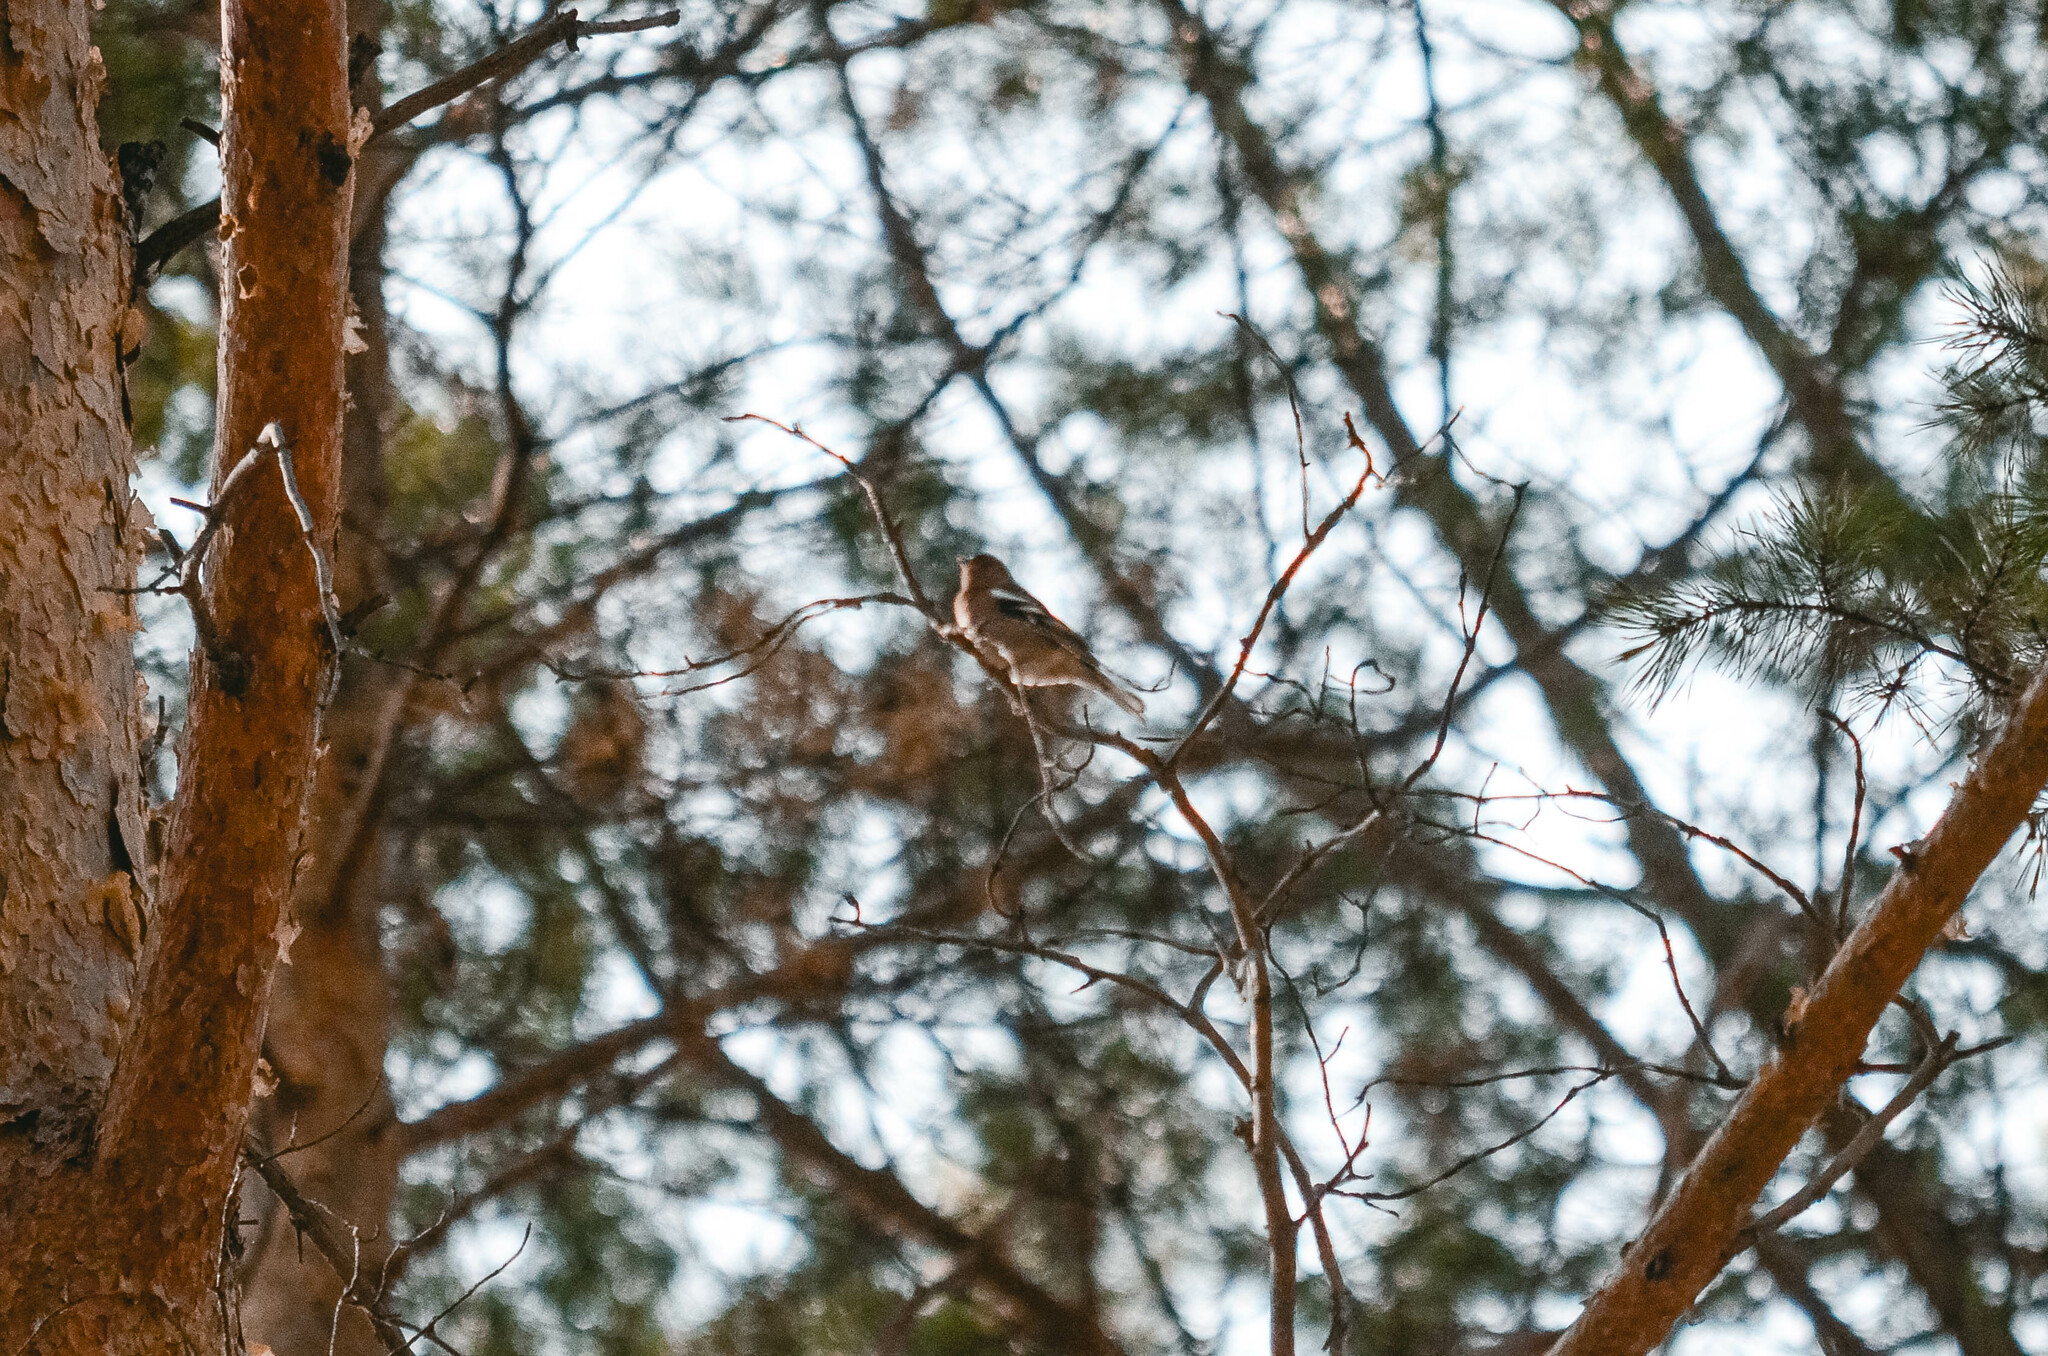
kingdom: Animalia
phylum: Chordata
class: Aves
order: Passeriformes
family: Fringillidae
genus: Fringilla
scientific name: Fringilla coelebs
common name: Common chaffinch
